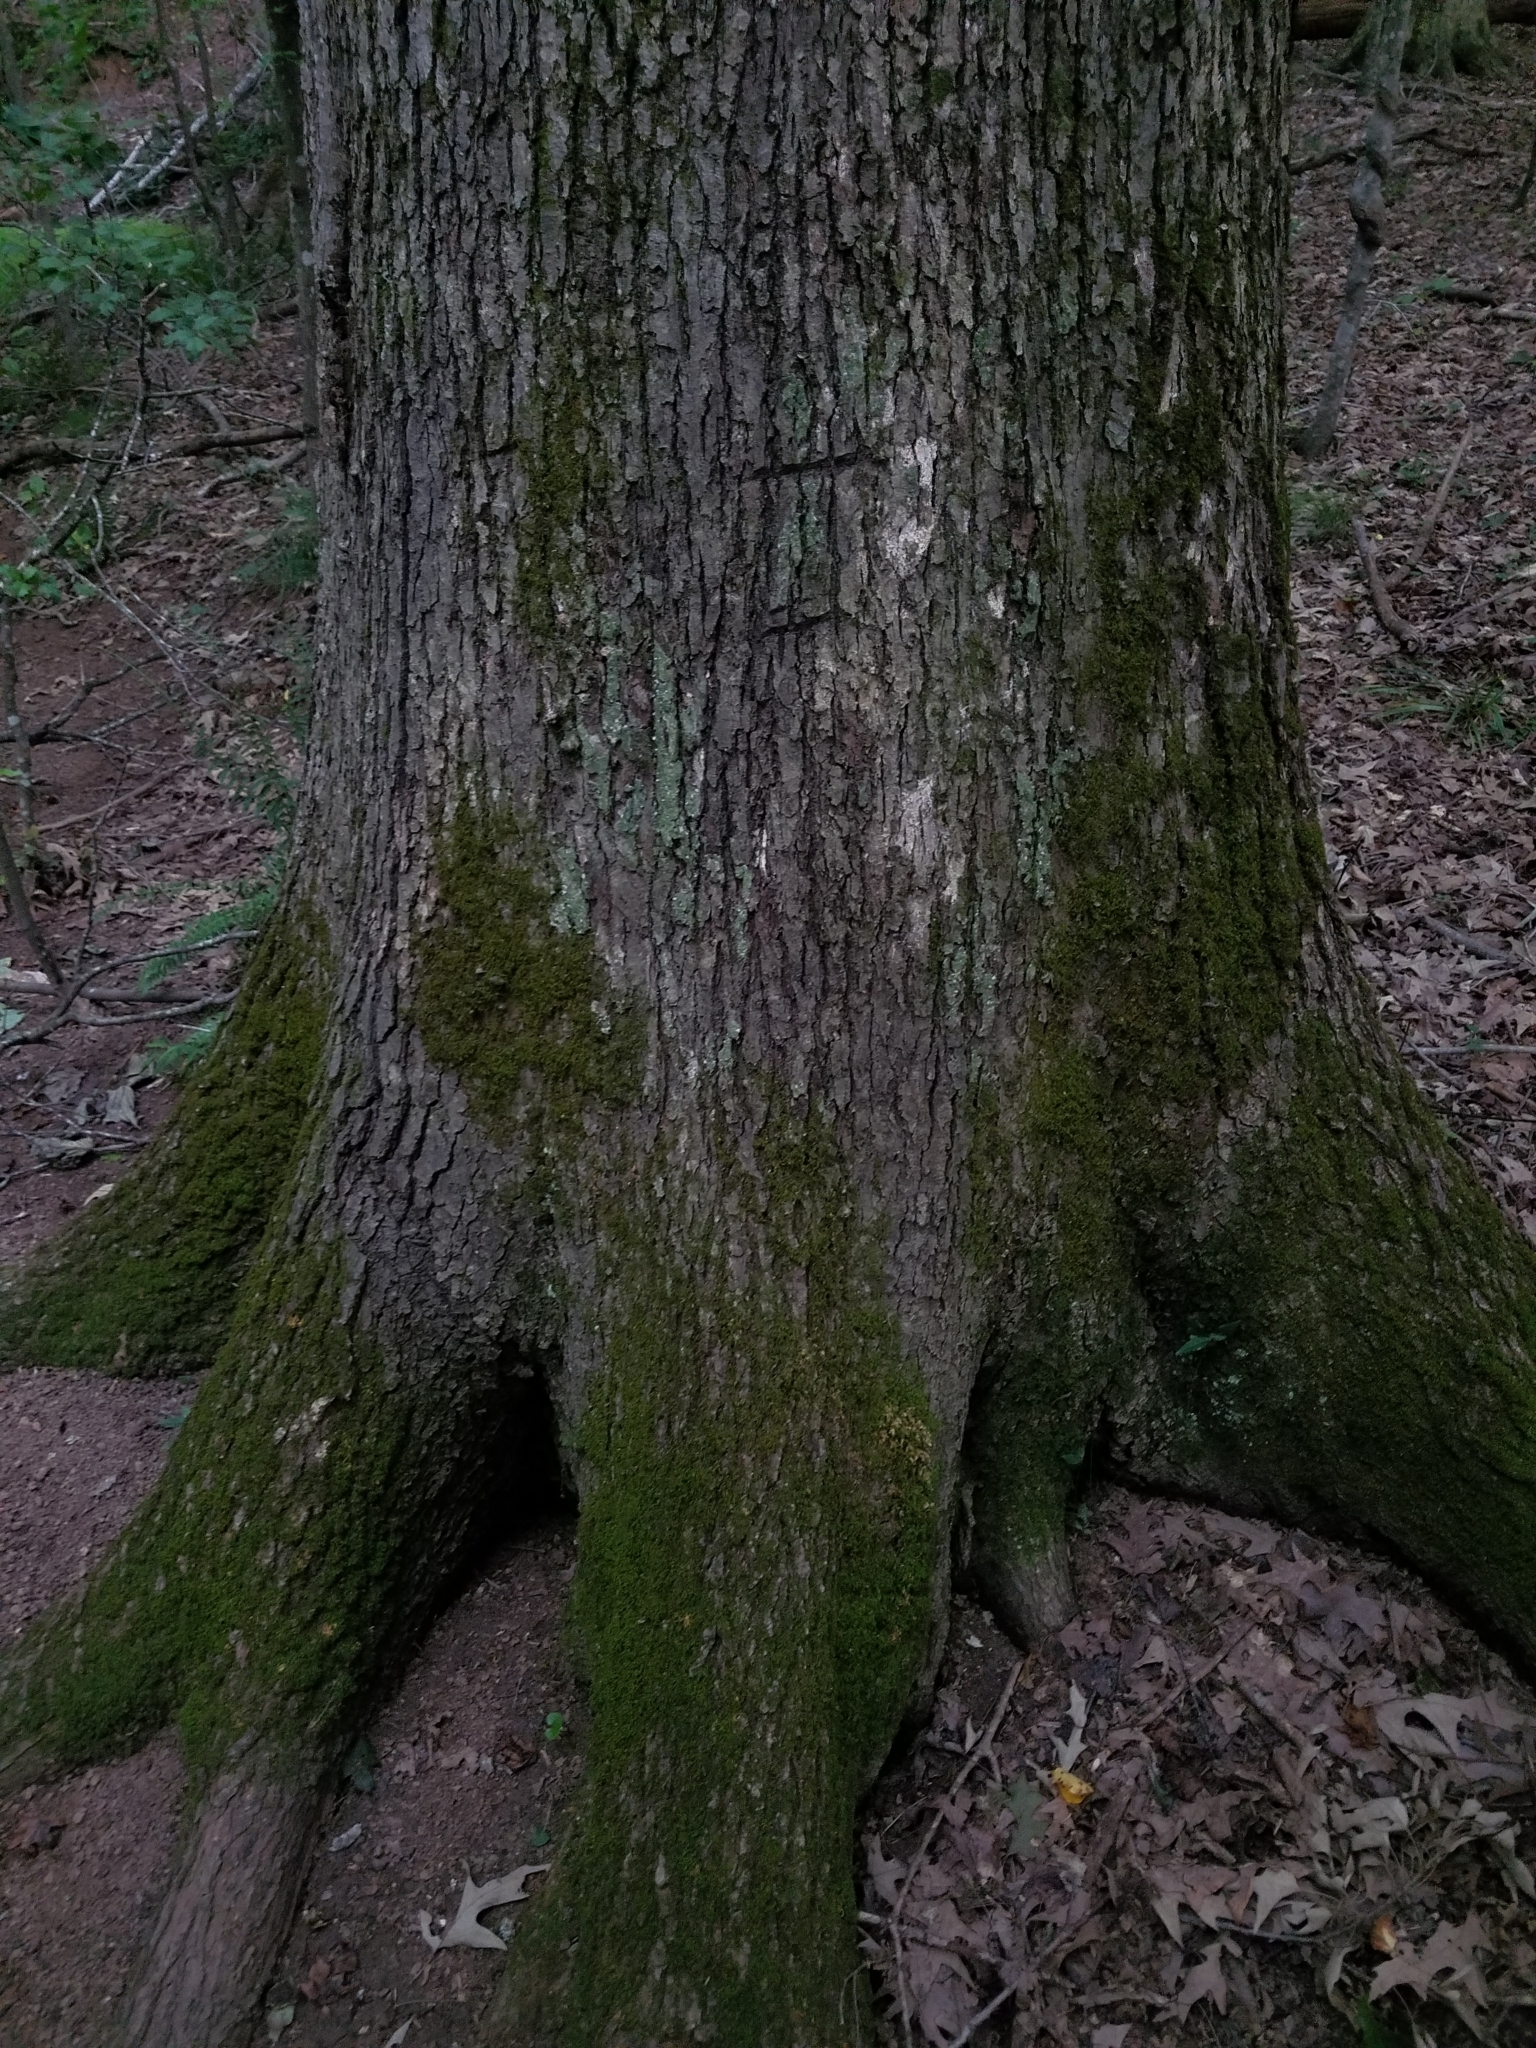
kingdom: Plantae
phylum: Tracheophyta
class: Magnoliopsida
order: Saxifragales
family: Altingiaceae
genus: Liquidambar
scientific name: Liquidambar styraciflua
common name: Sweet gum
